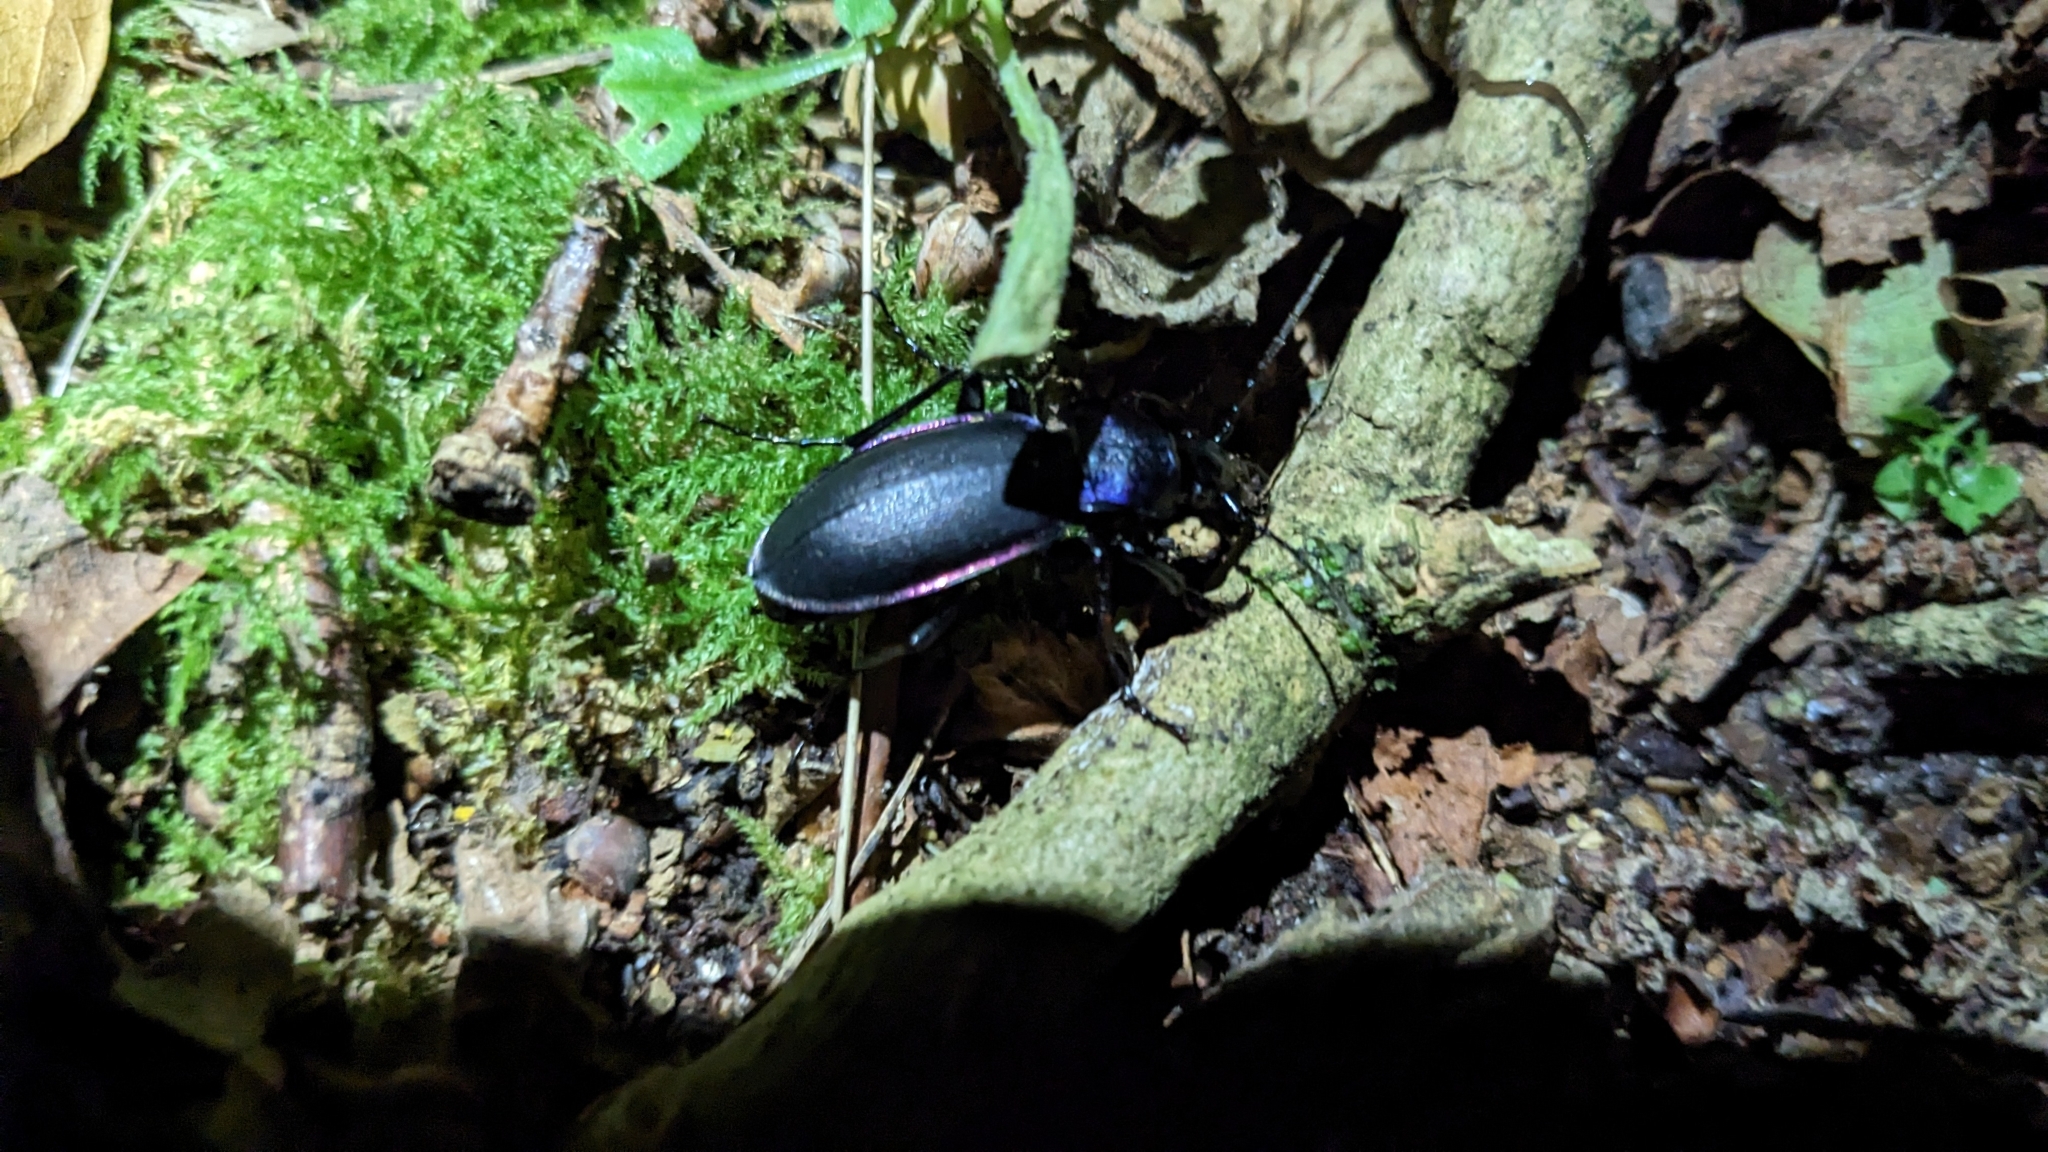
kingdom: Animalia
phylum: Arthropoda
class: Insecta
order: Coleoptera
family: Carabidae
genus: Carabus
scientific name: Carabus violaceus
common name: Violet ground beetle
